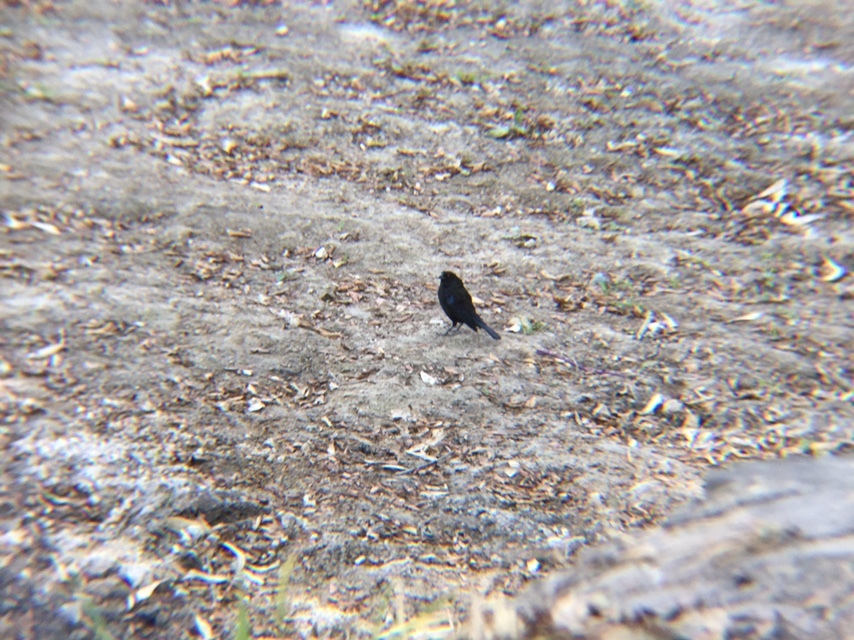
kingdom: Animalia
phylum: Chordata
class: Aves
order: Passeriformes
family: Icteridae
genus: Molothrus
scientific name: Molothrus aeneus
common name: Bronzed cowbird
